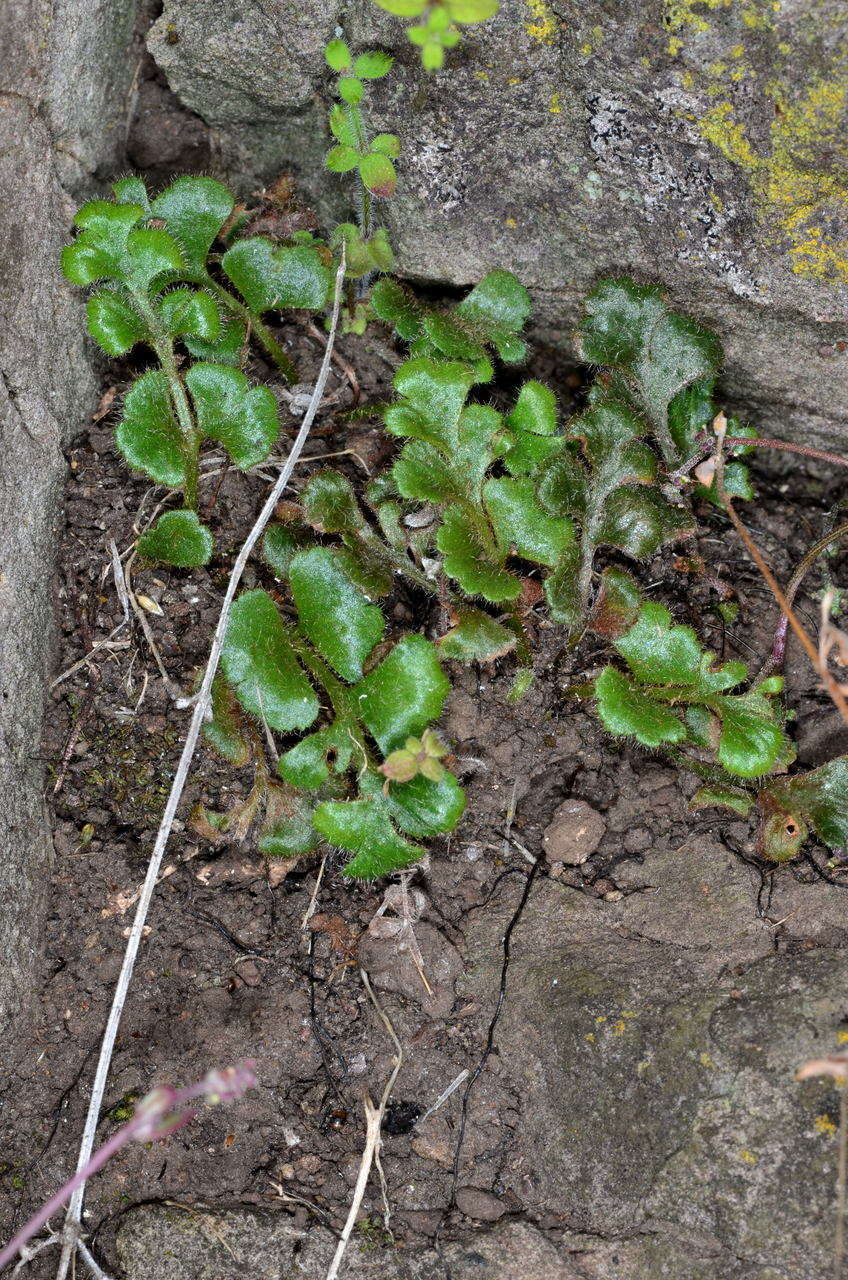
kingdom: Plantae
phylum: Tracheophyta
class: Polypodiopsida
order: Polypodiales
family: Aspleniaceae
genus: Asplenium
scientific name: Asplenium subglandulosum
